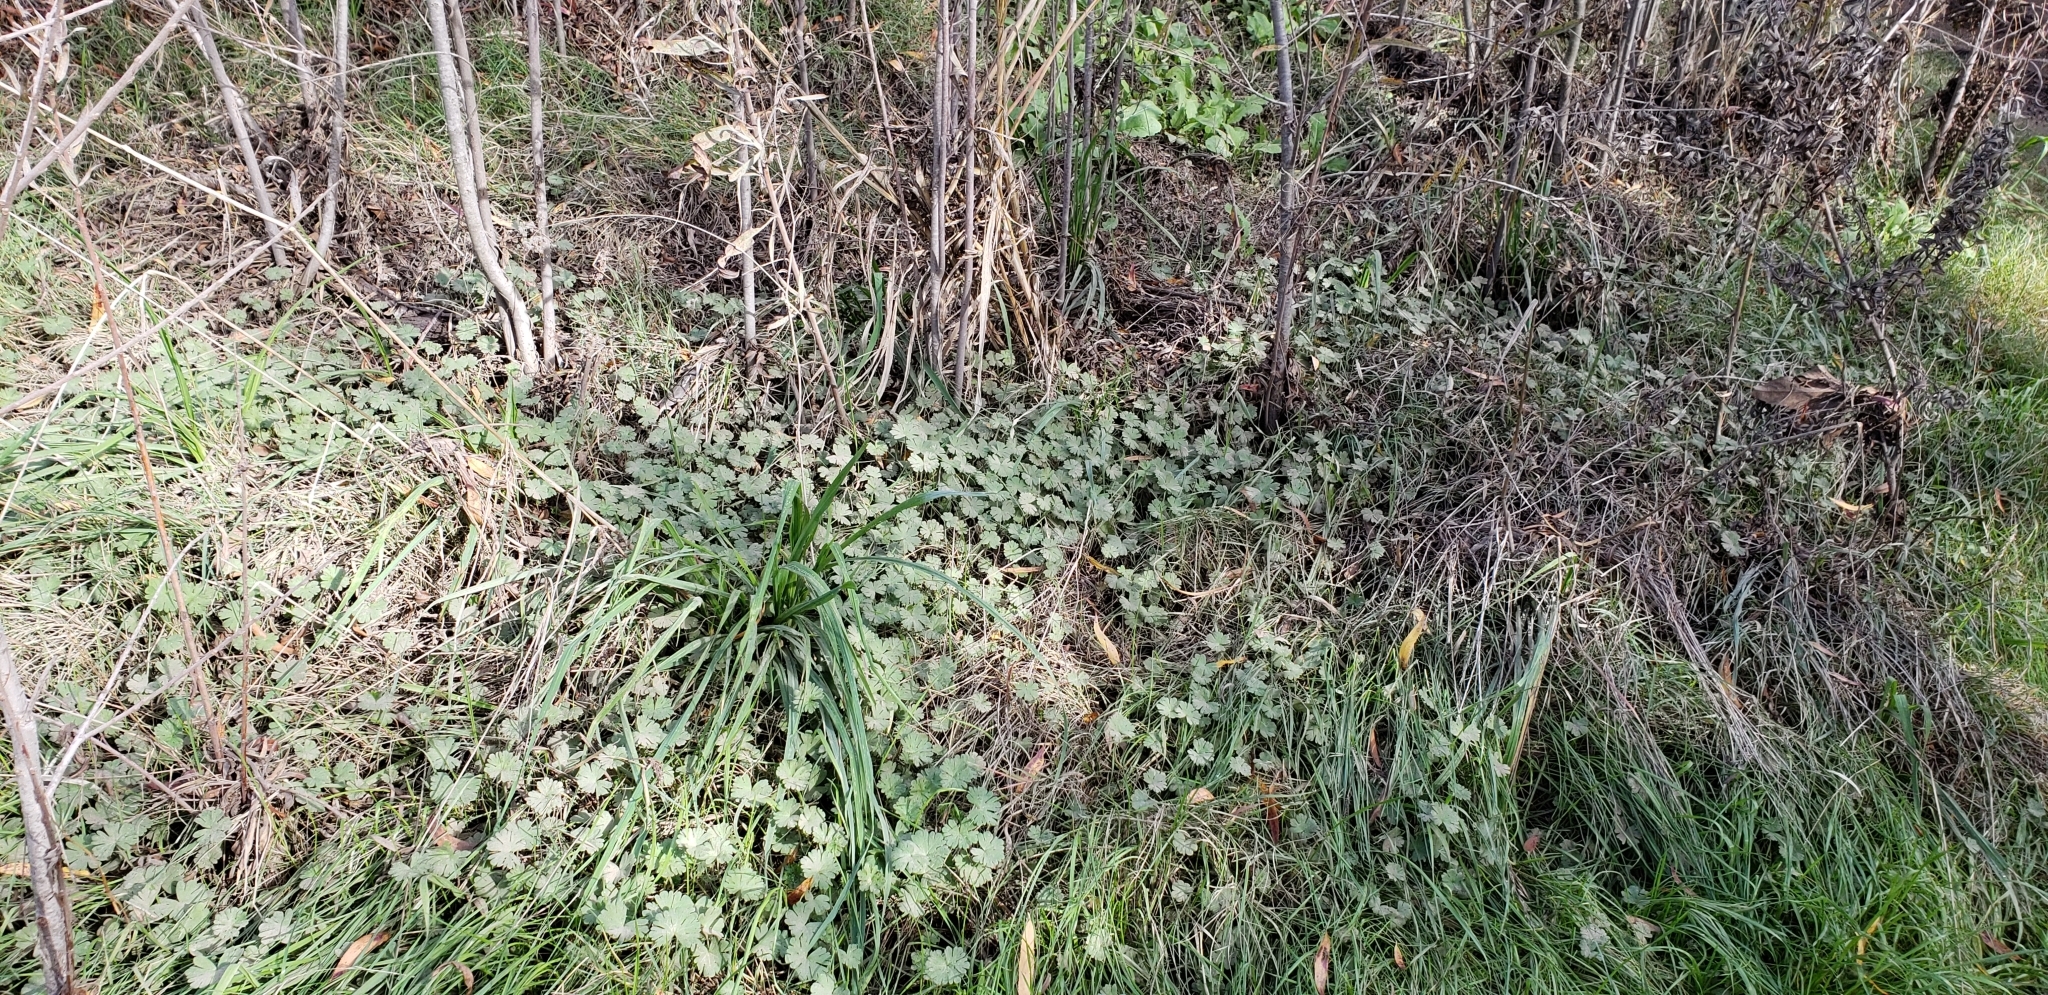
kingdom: Plantae
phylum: Tracheophyta
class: Magnoliopsida
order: Geraniales
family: Geraniaceae
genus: Geranium
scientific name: Geranium
